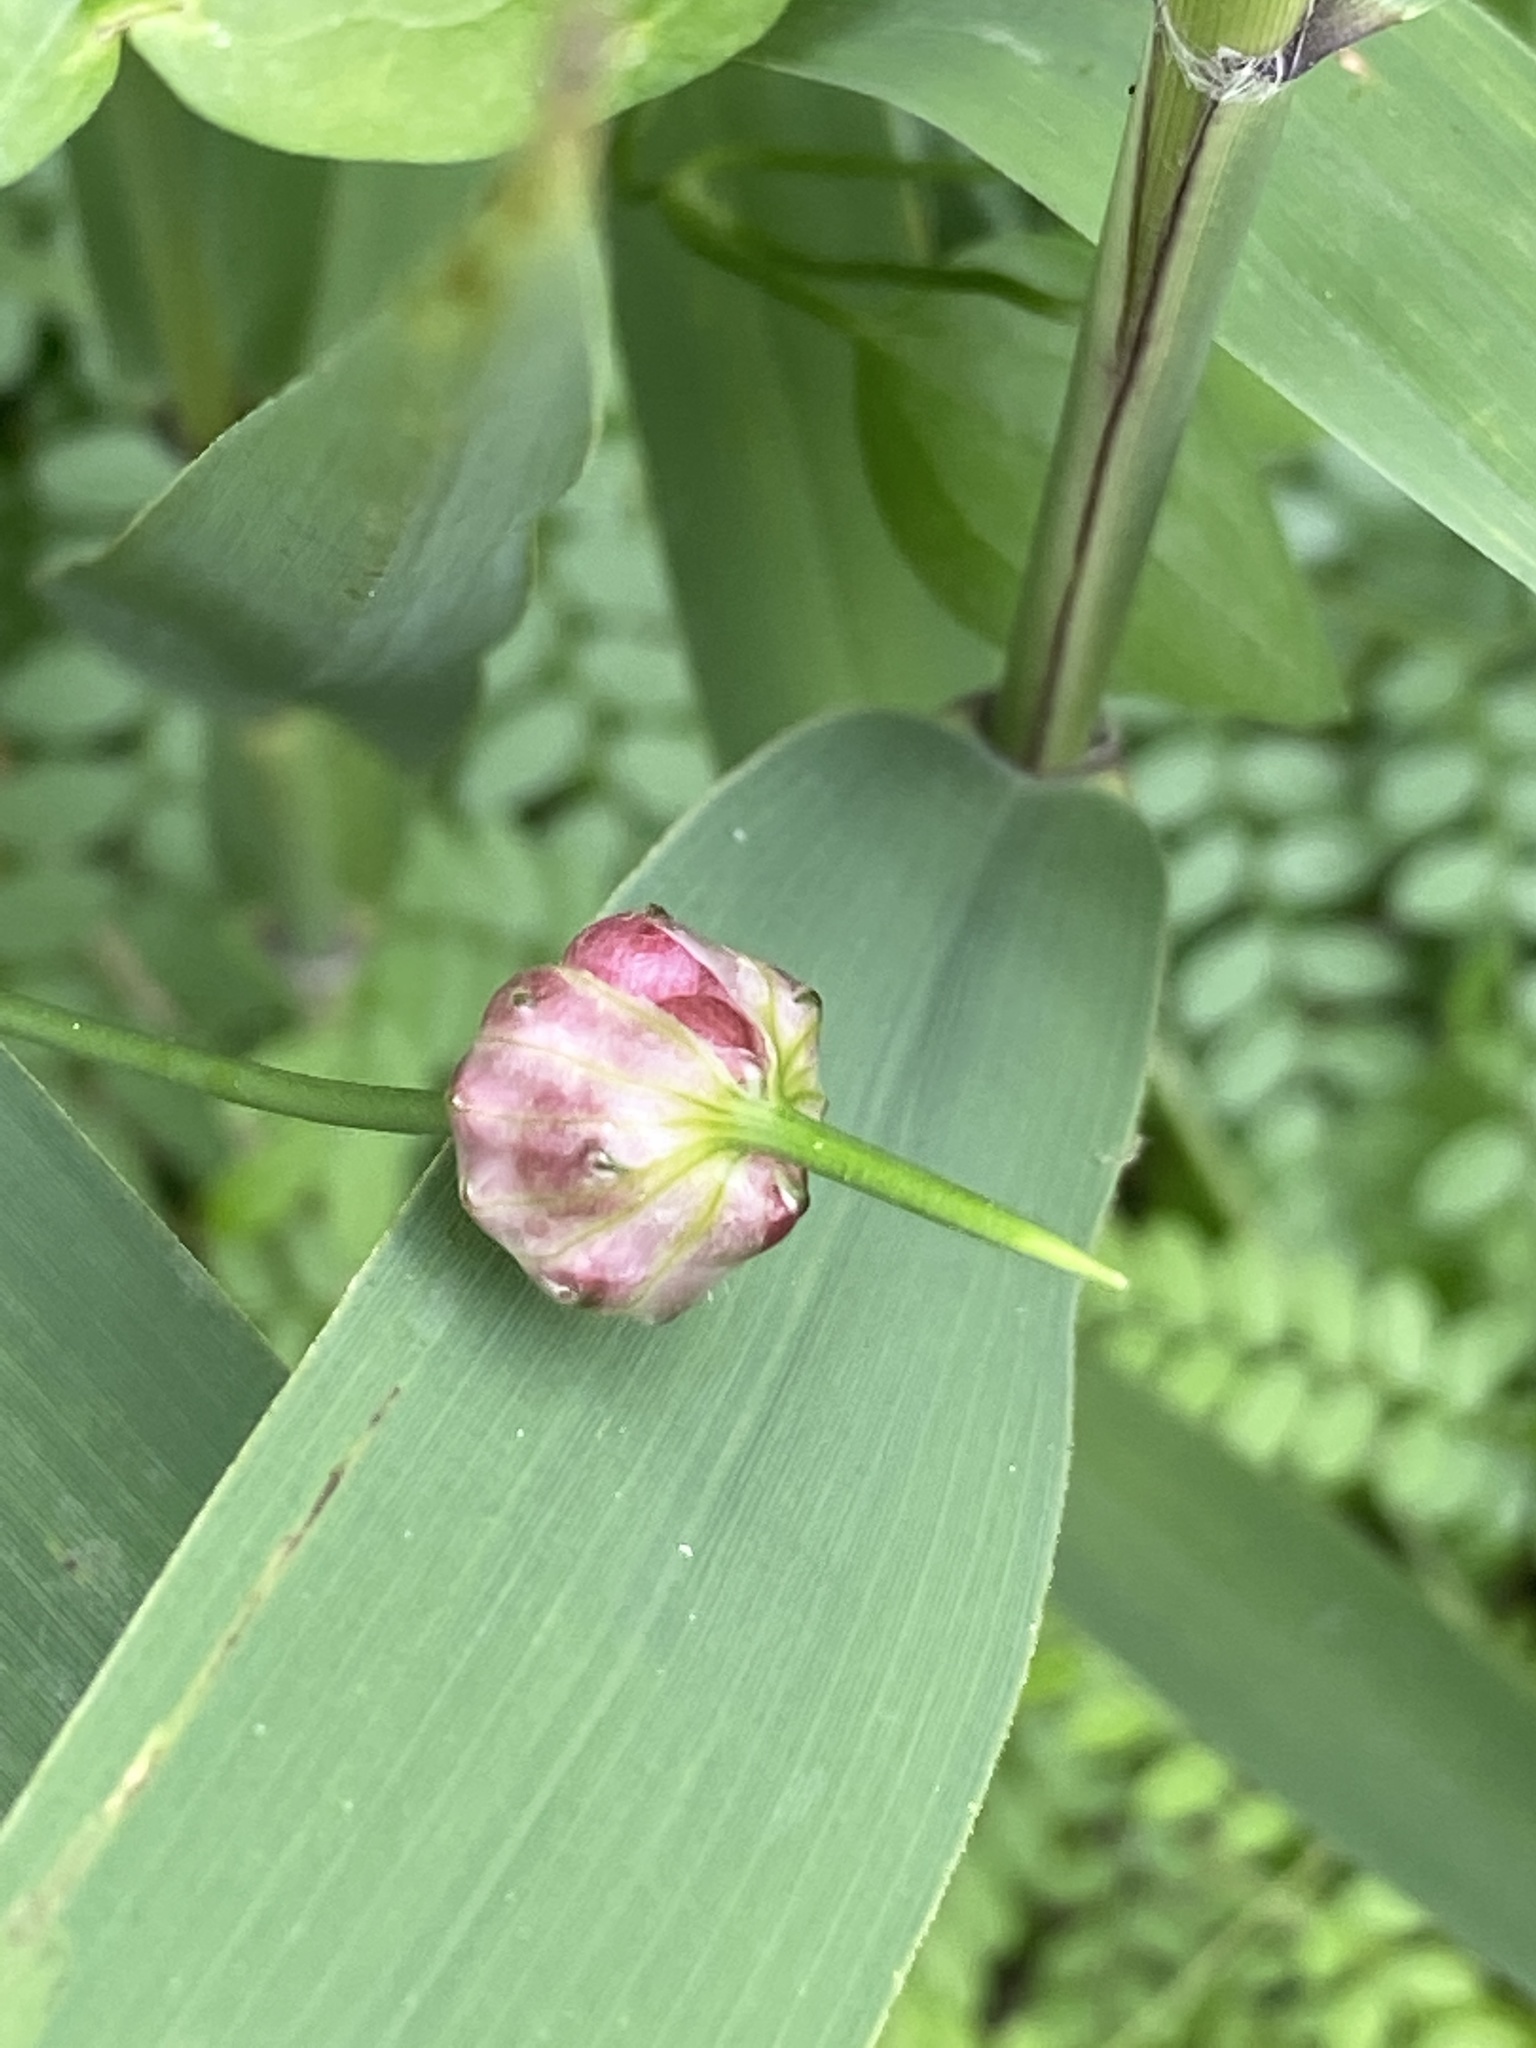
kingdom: Plantae
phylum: Tracheophyta
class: Liliopsida
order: Asparagales
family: Amaryllidaceae
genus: Allium
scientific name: Allium vineale
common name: Crow garlic
